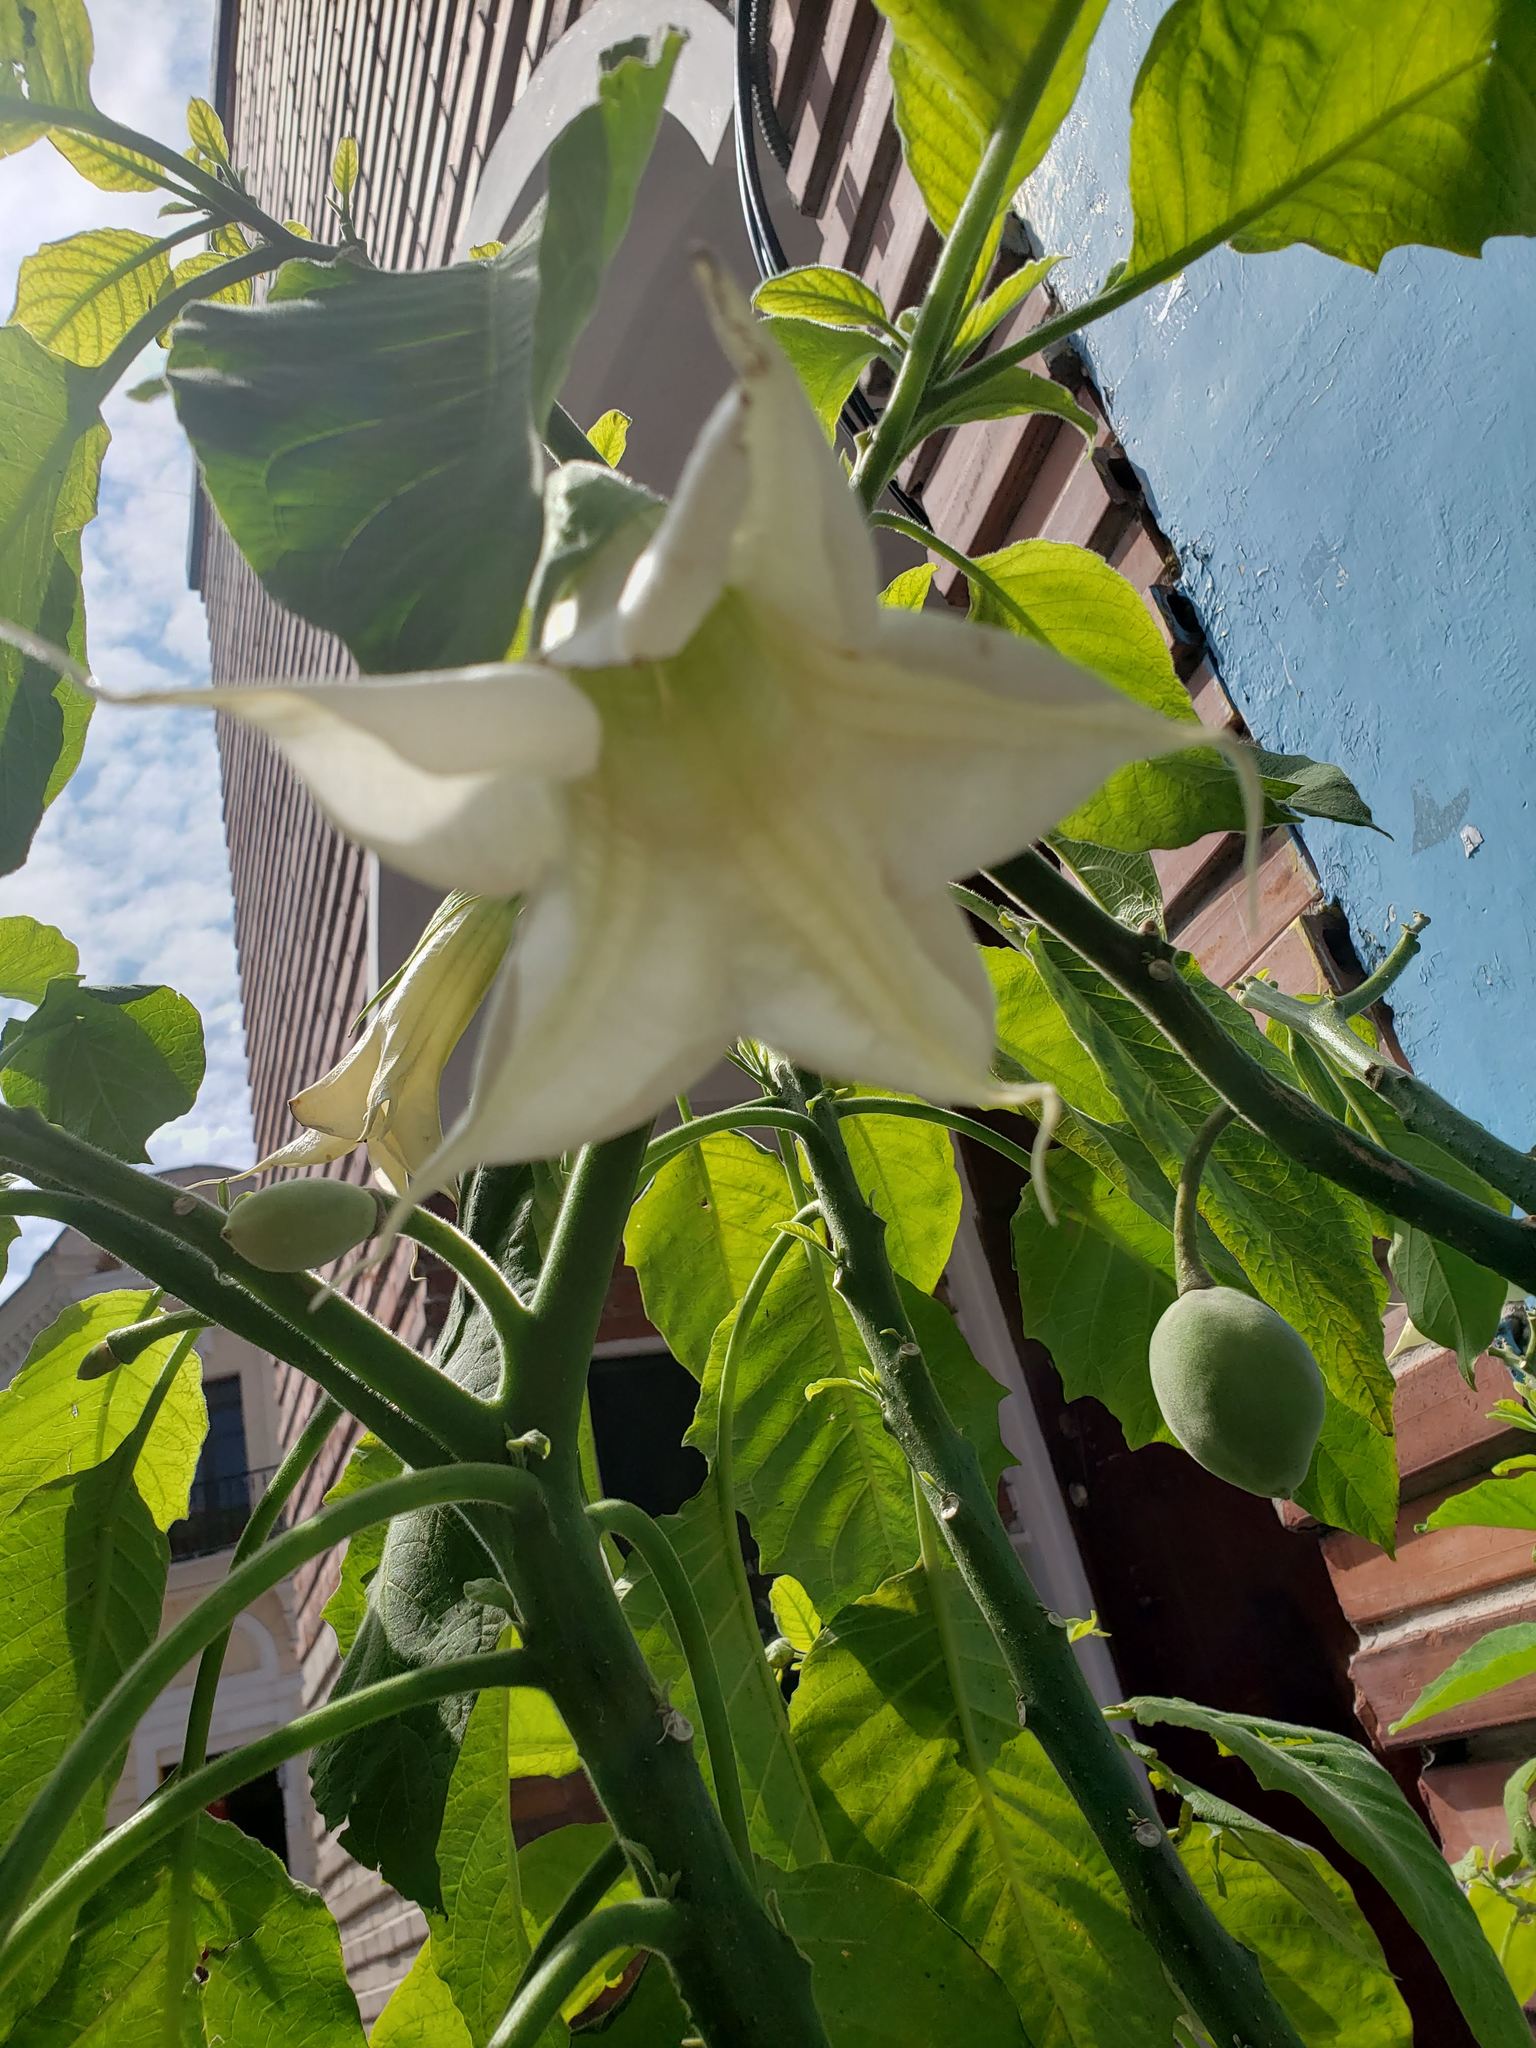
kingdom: Plantae
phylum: Tracheophyta
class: Magnoliopsida
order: Solanales
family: Solanaceae
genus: Brugmansia
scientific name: Brugmansia arborea
